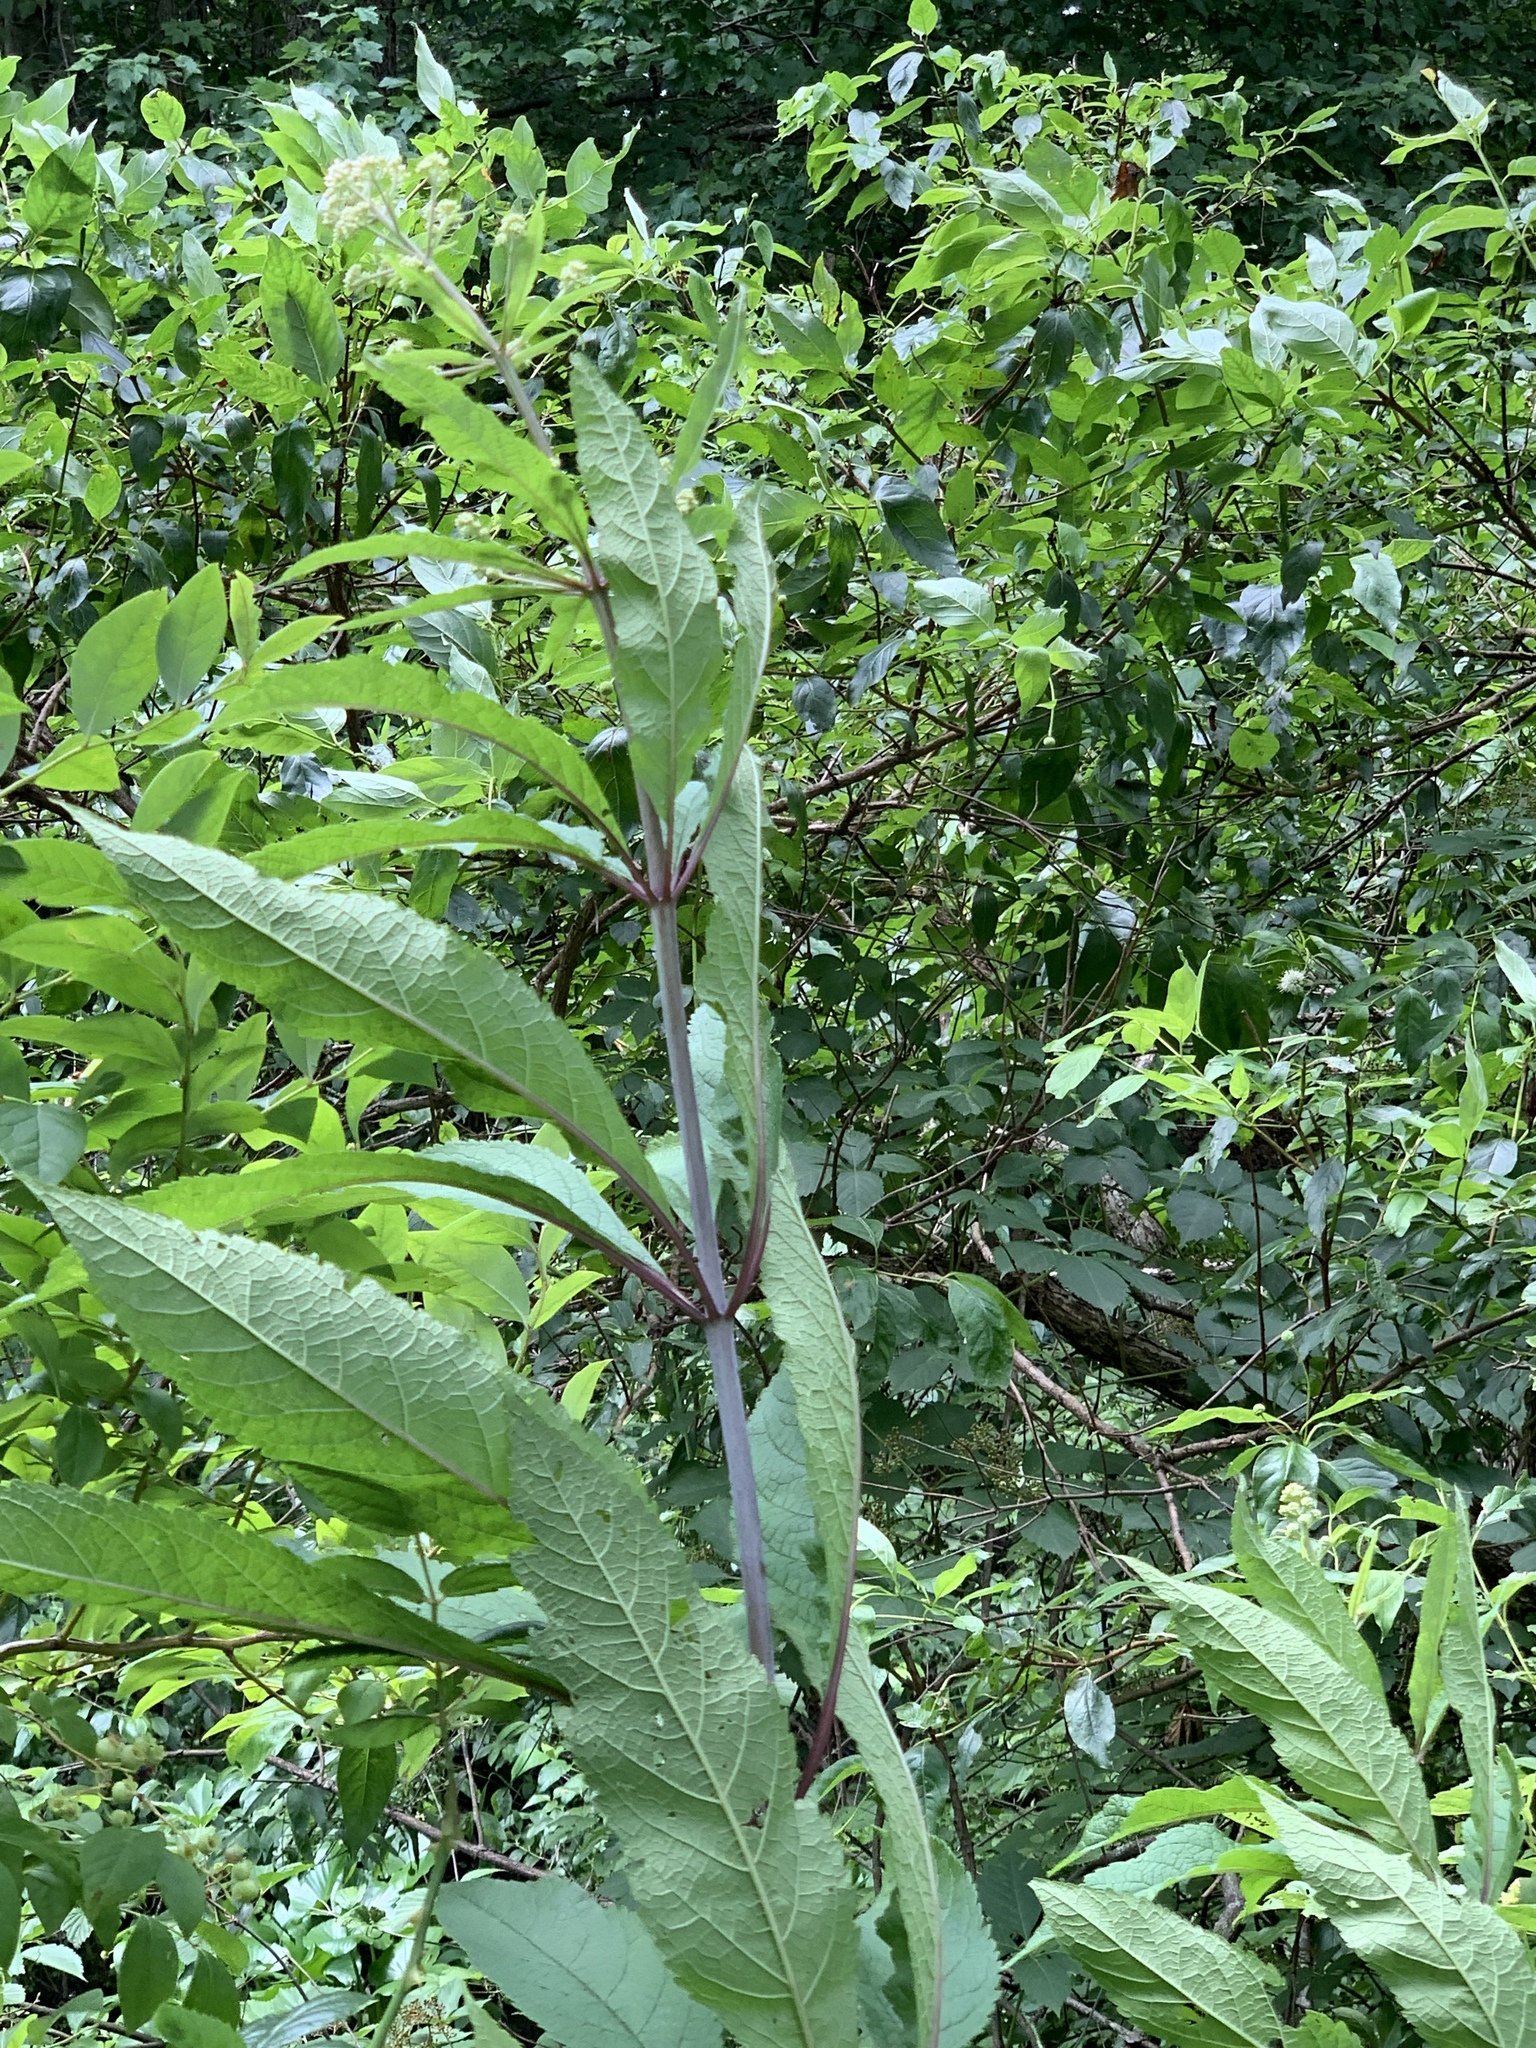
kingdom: Plantae
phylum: Tracheophyta
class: Magnoliopsida
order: Asterales
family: Asteraceae
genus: Eutrochium
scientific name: Eutrochium fistulosum
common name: Trumpetweed
